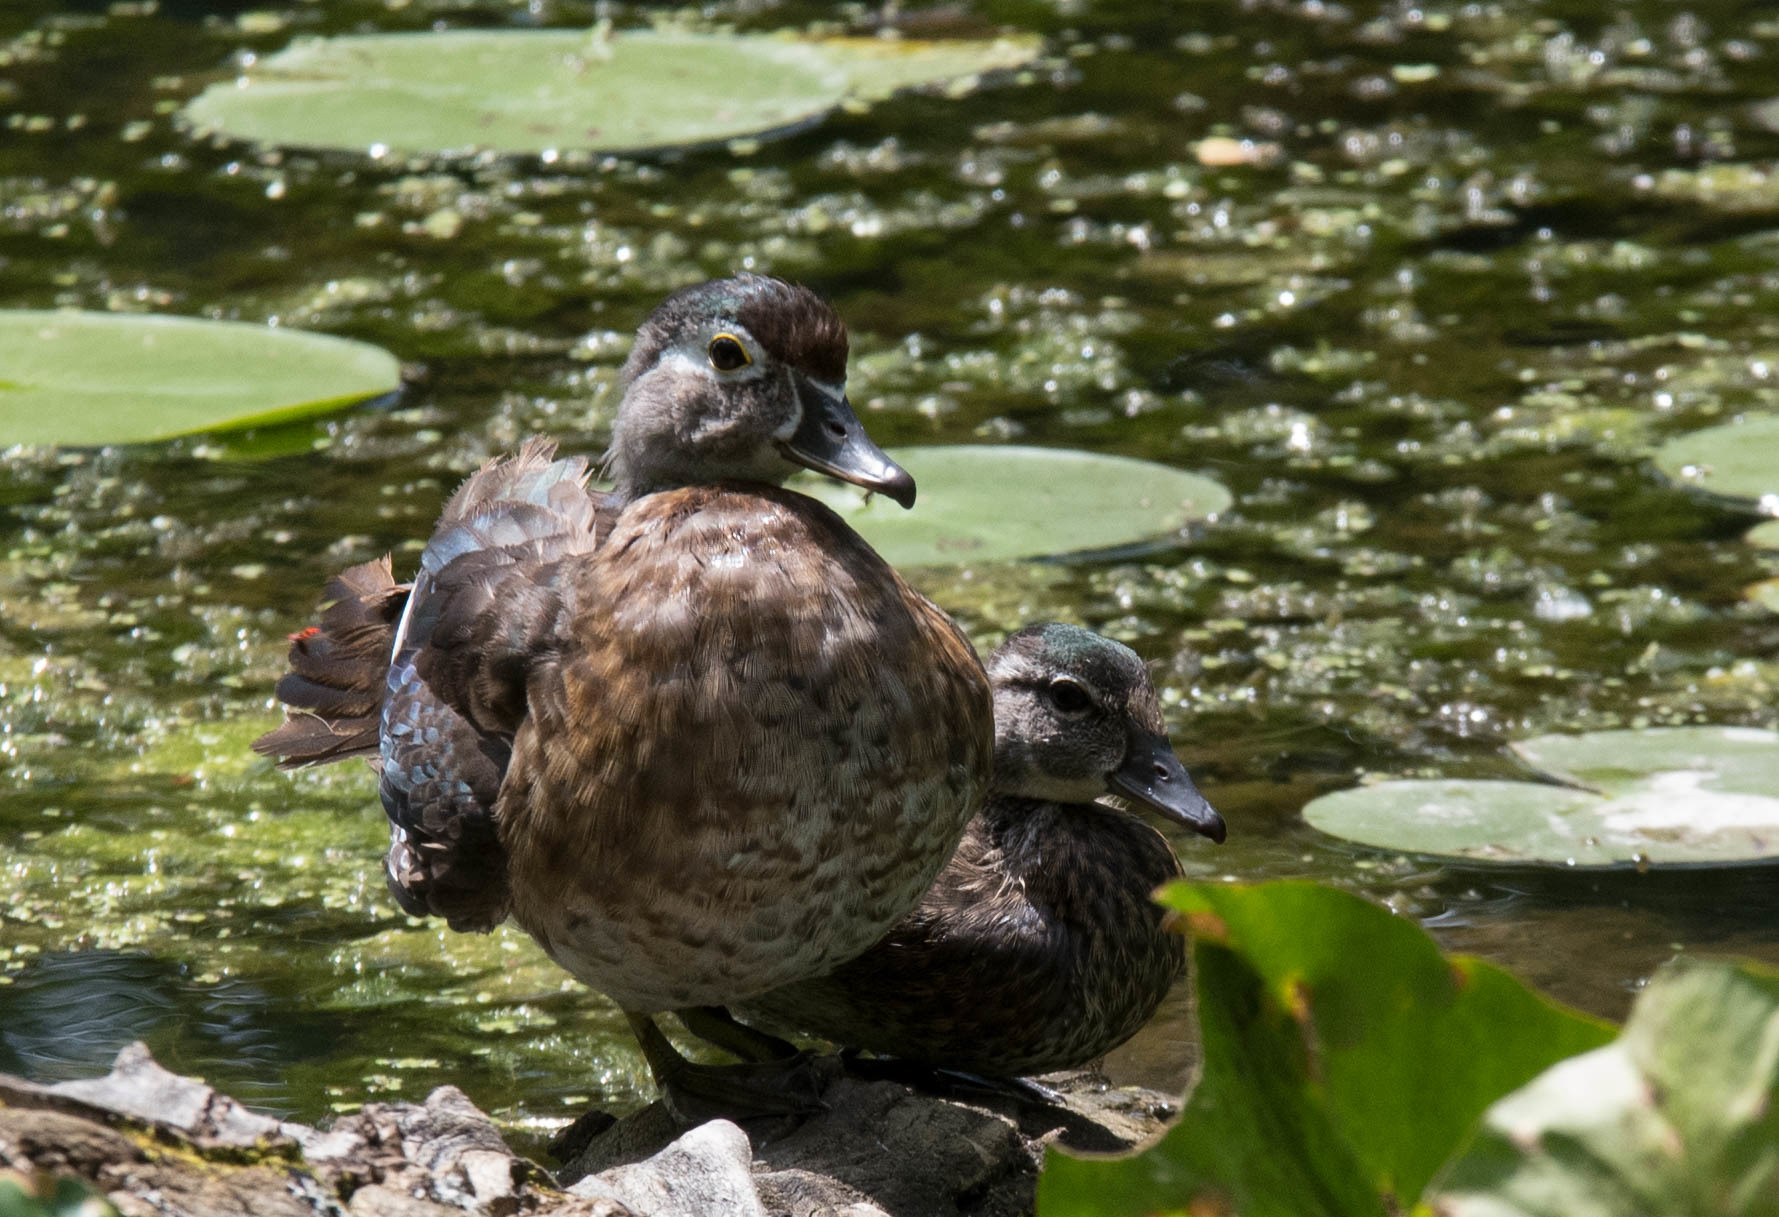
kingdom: Animalia
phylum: Chordata
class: Aves
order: Anseriformes
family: Anatidae
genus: Aix
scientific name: Aix sponsa
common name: Wood duck
